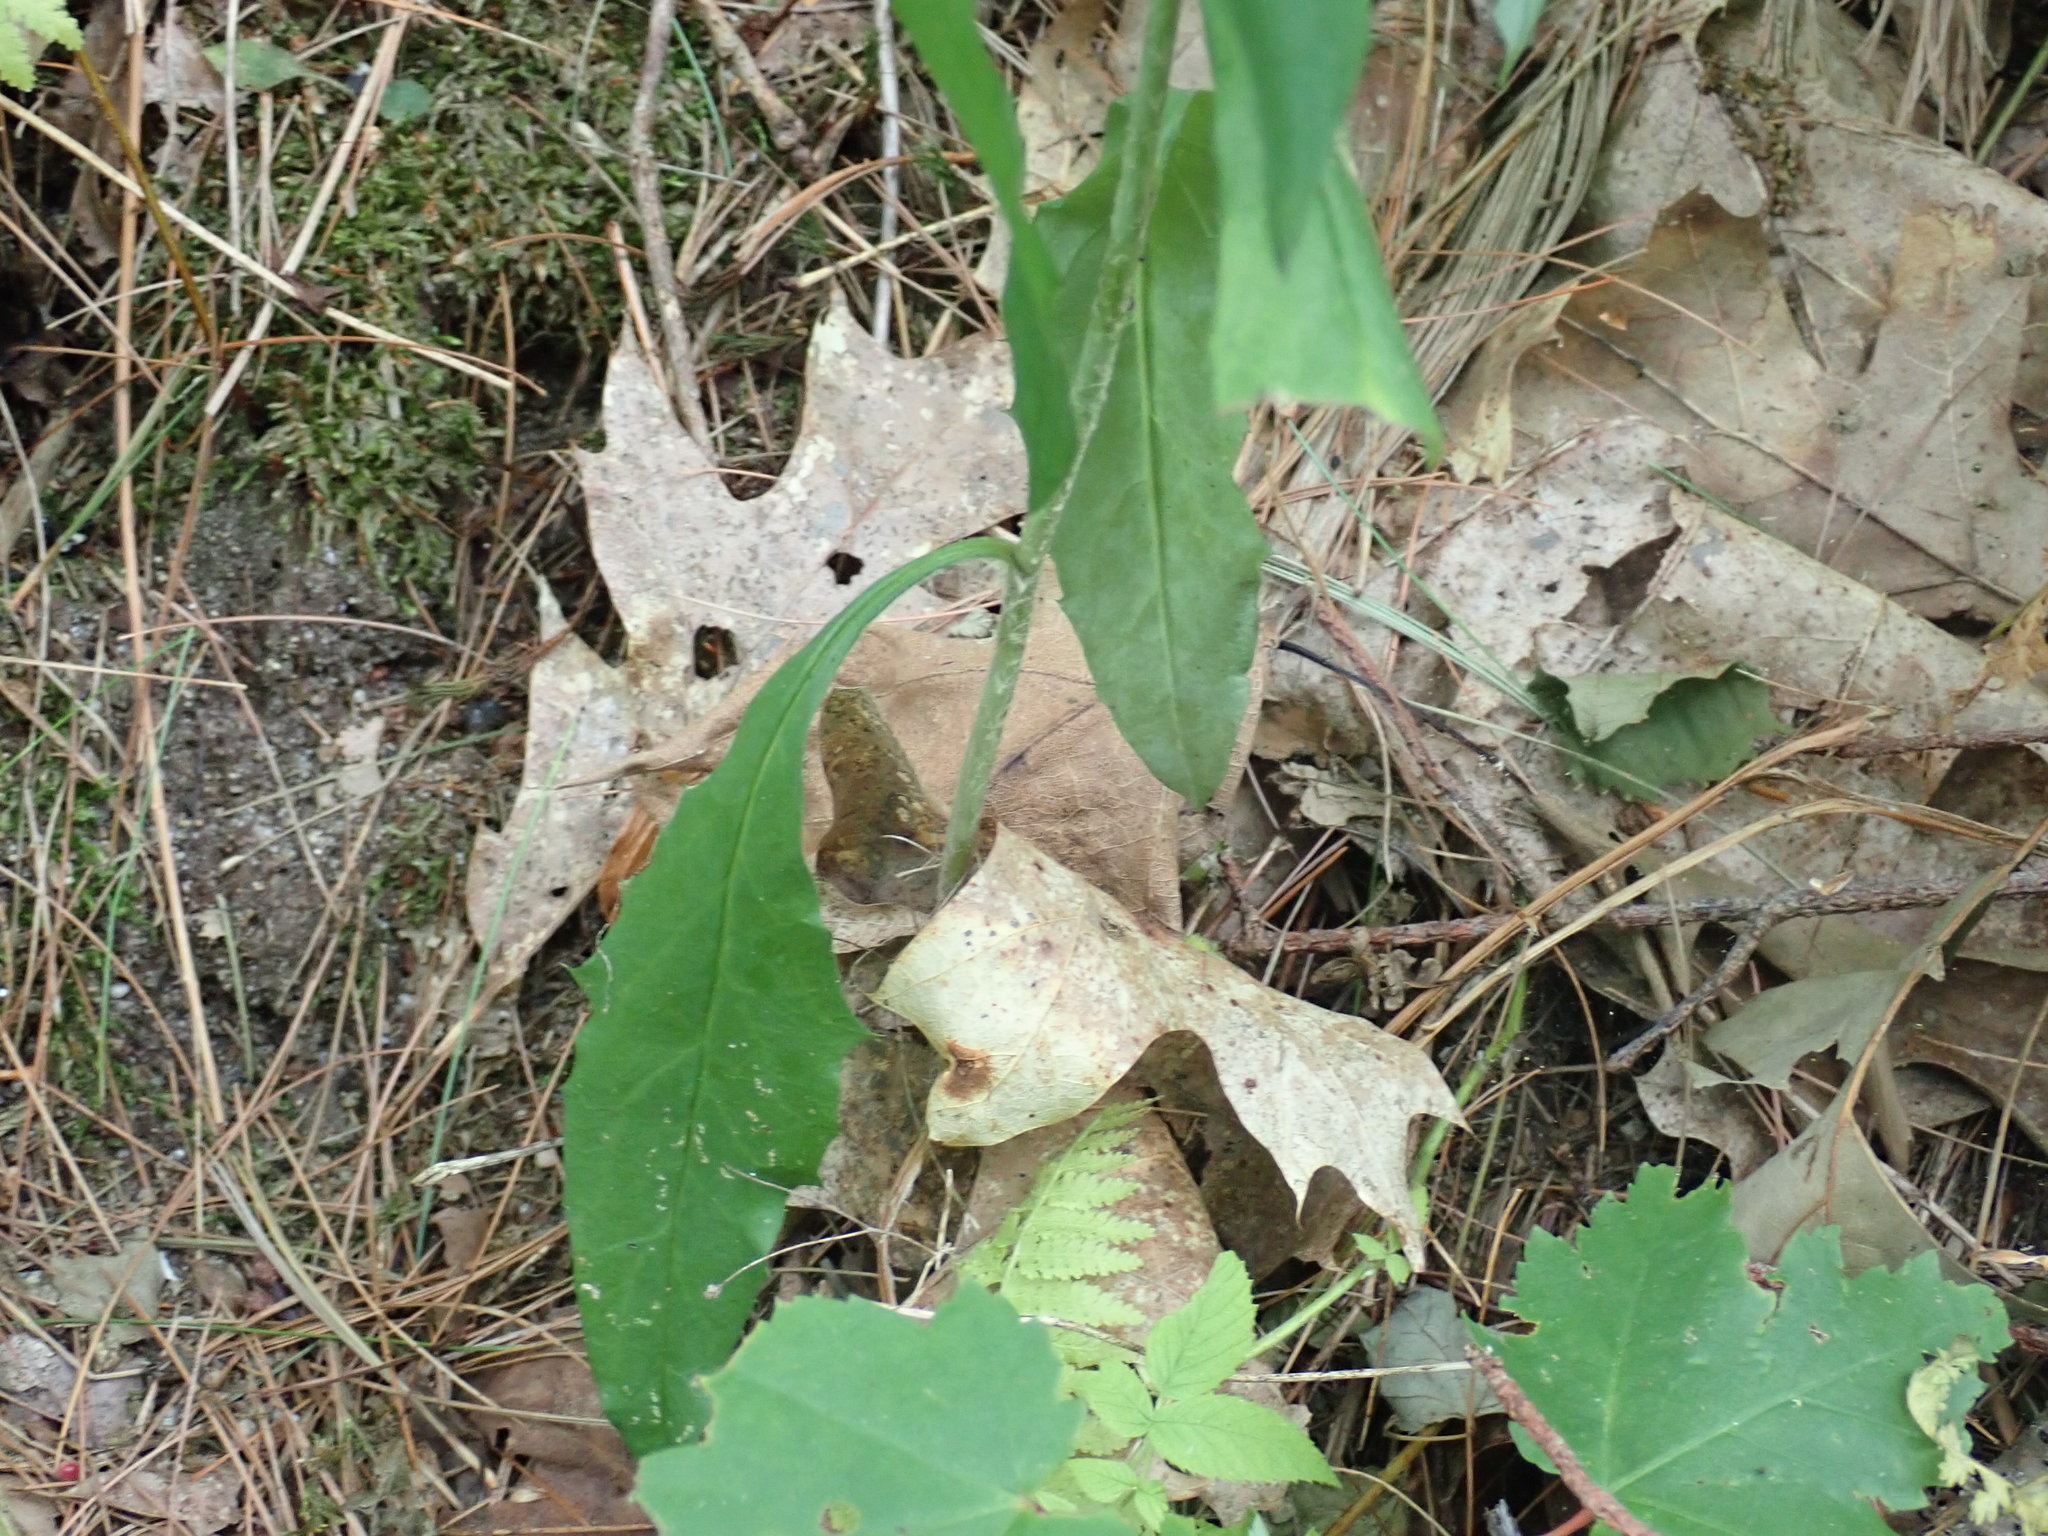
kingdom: Plantae
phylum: Tracheophyta
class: Magnoliopsida
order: Asterales
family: Asteraceae
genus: Hieracium
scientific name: Hieracium paniculatum
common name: Allegheny hawkweed
